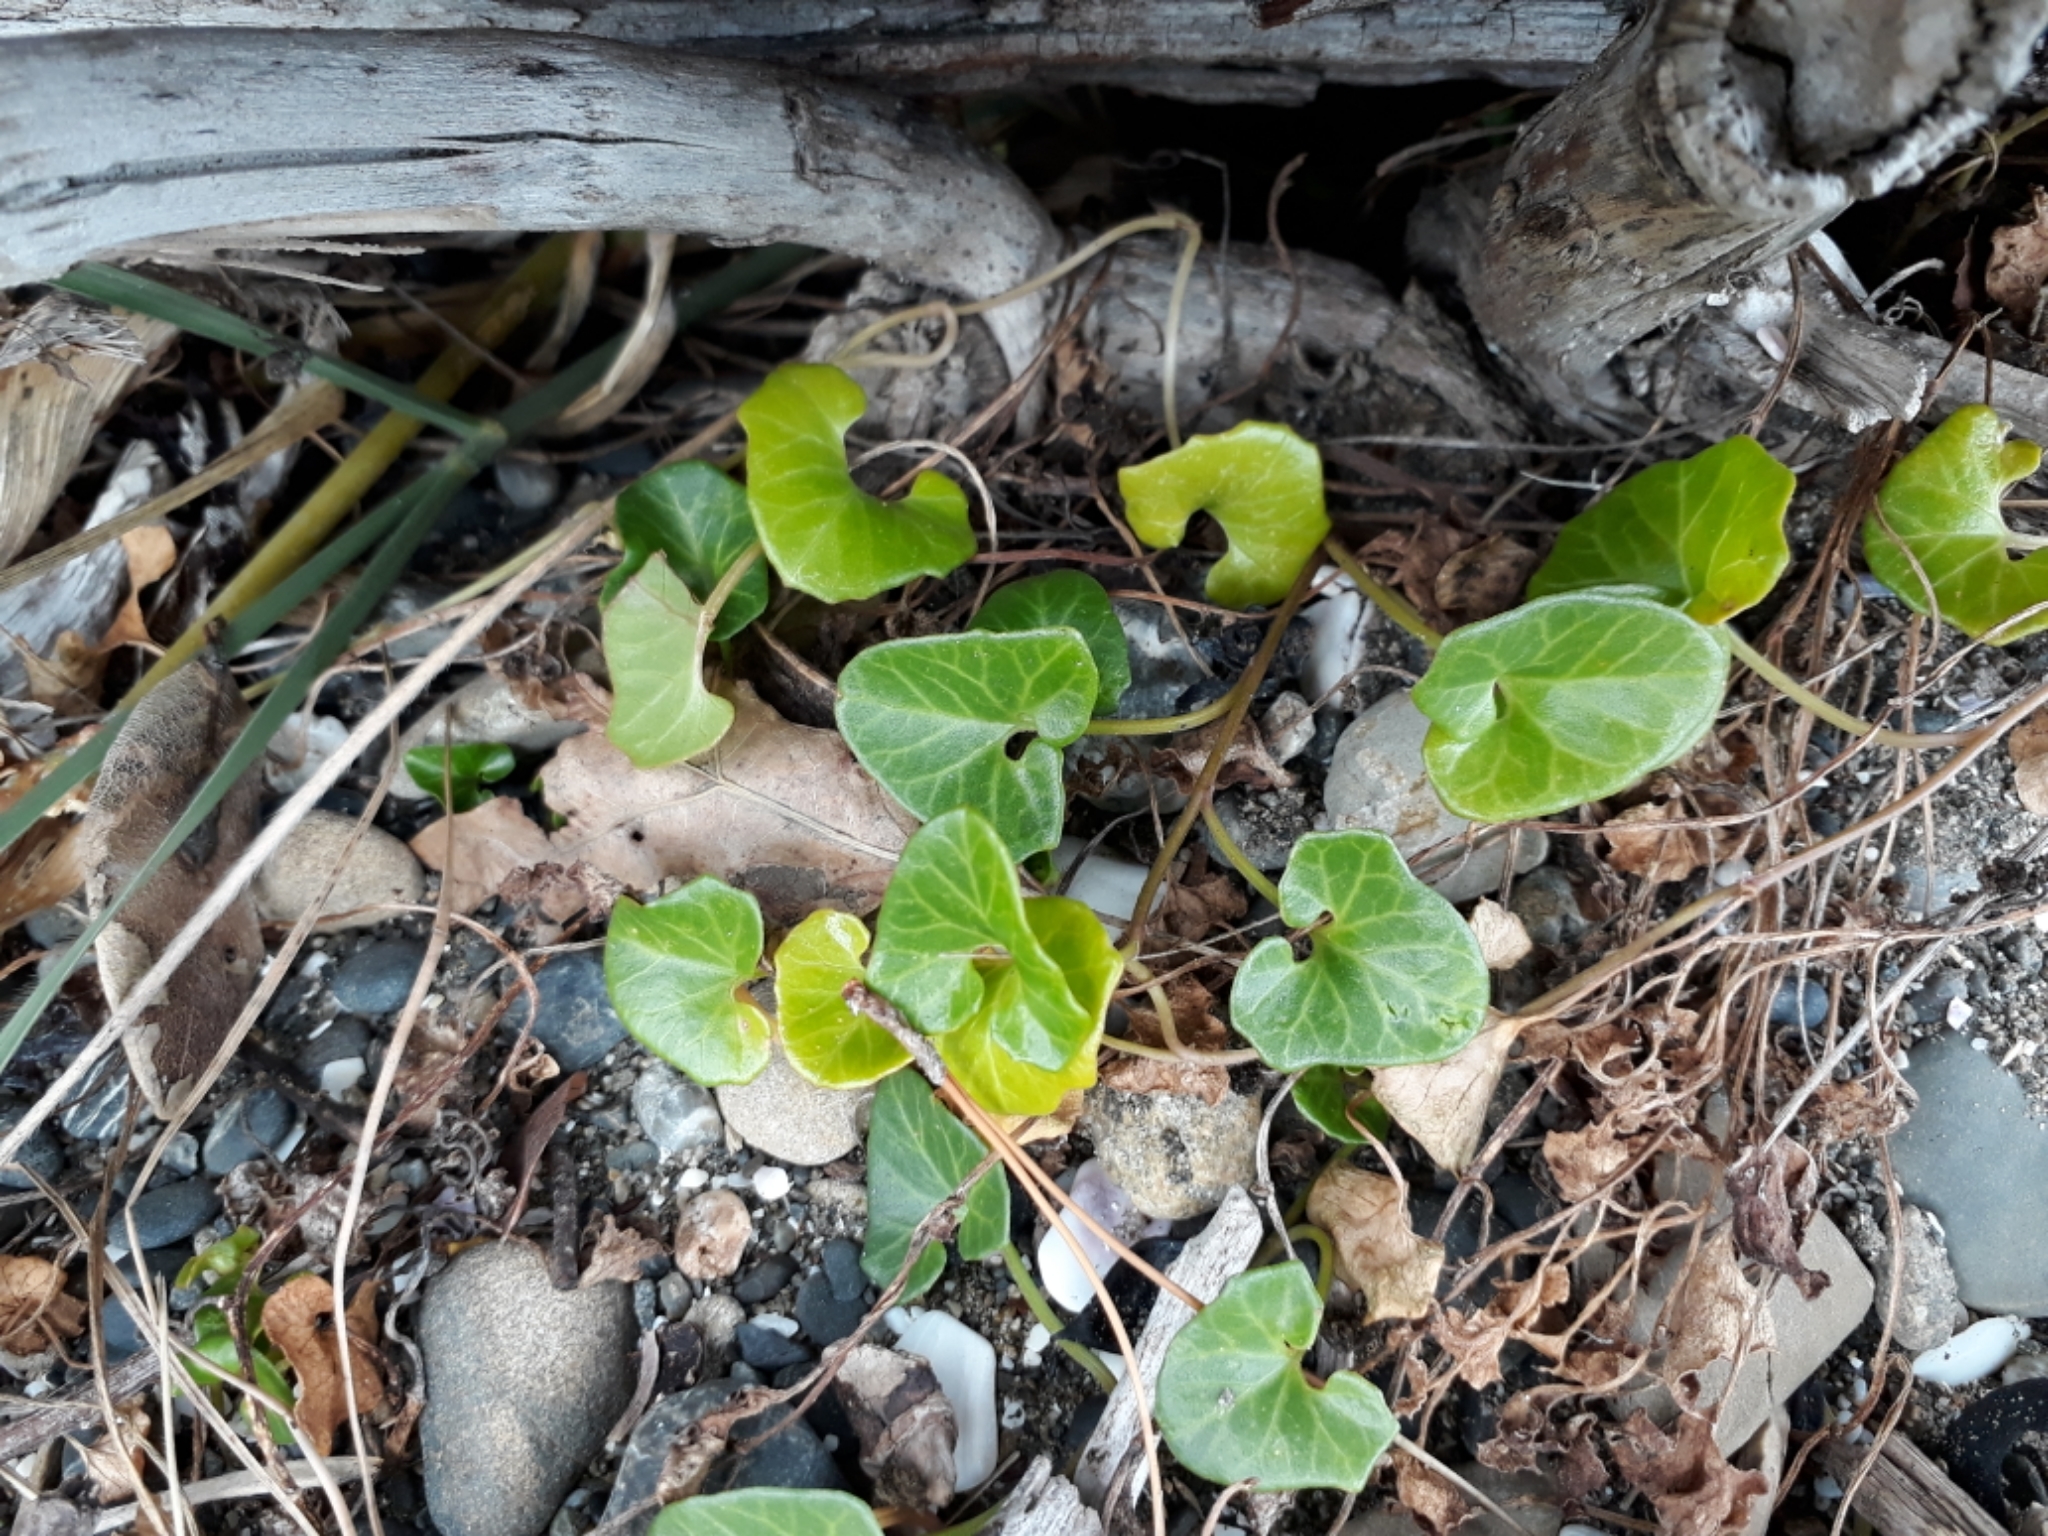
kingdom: Plantae
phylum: Tracheophyta
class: Magnoliopsida
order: Solanales
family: Convolvulaceae
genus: Calystegia
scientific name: Calystegia soldanella
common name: Sea bindweed
